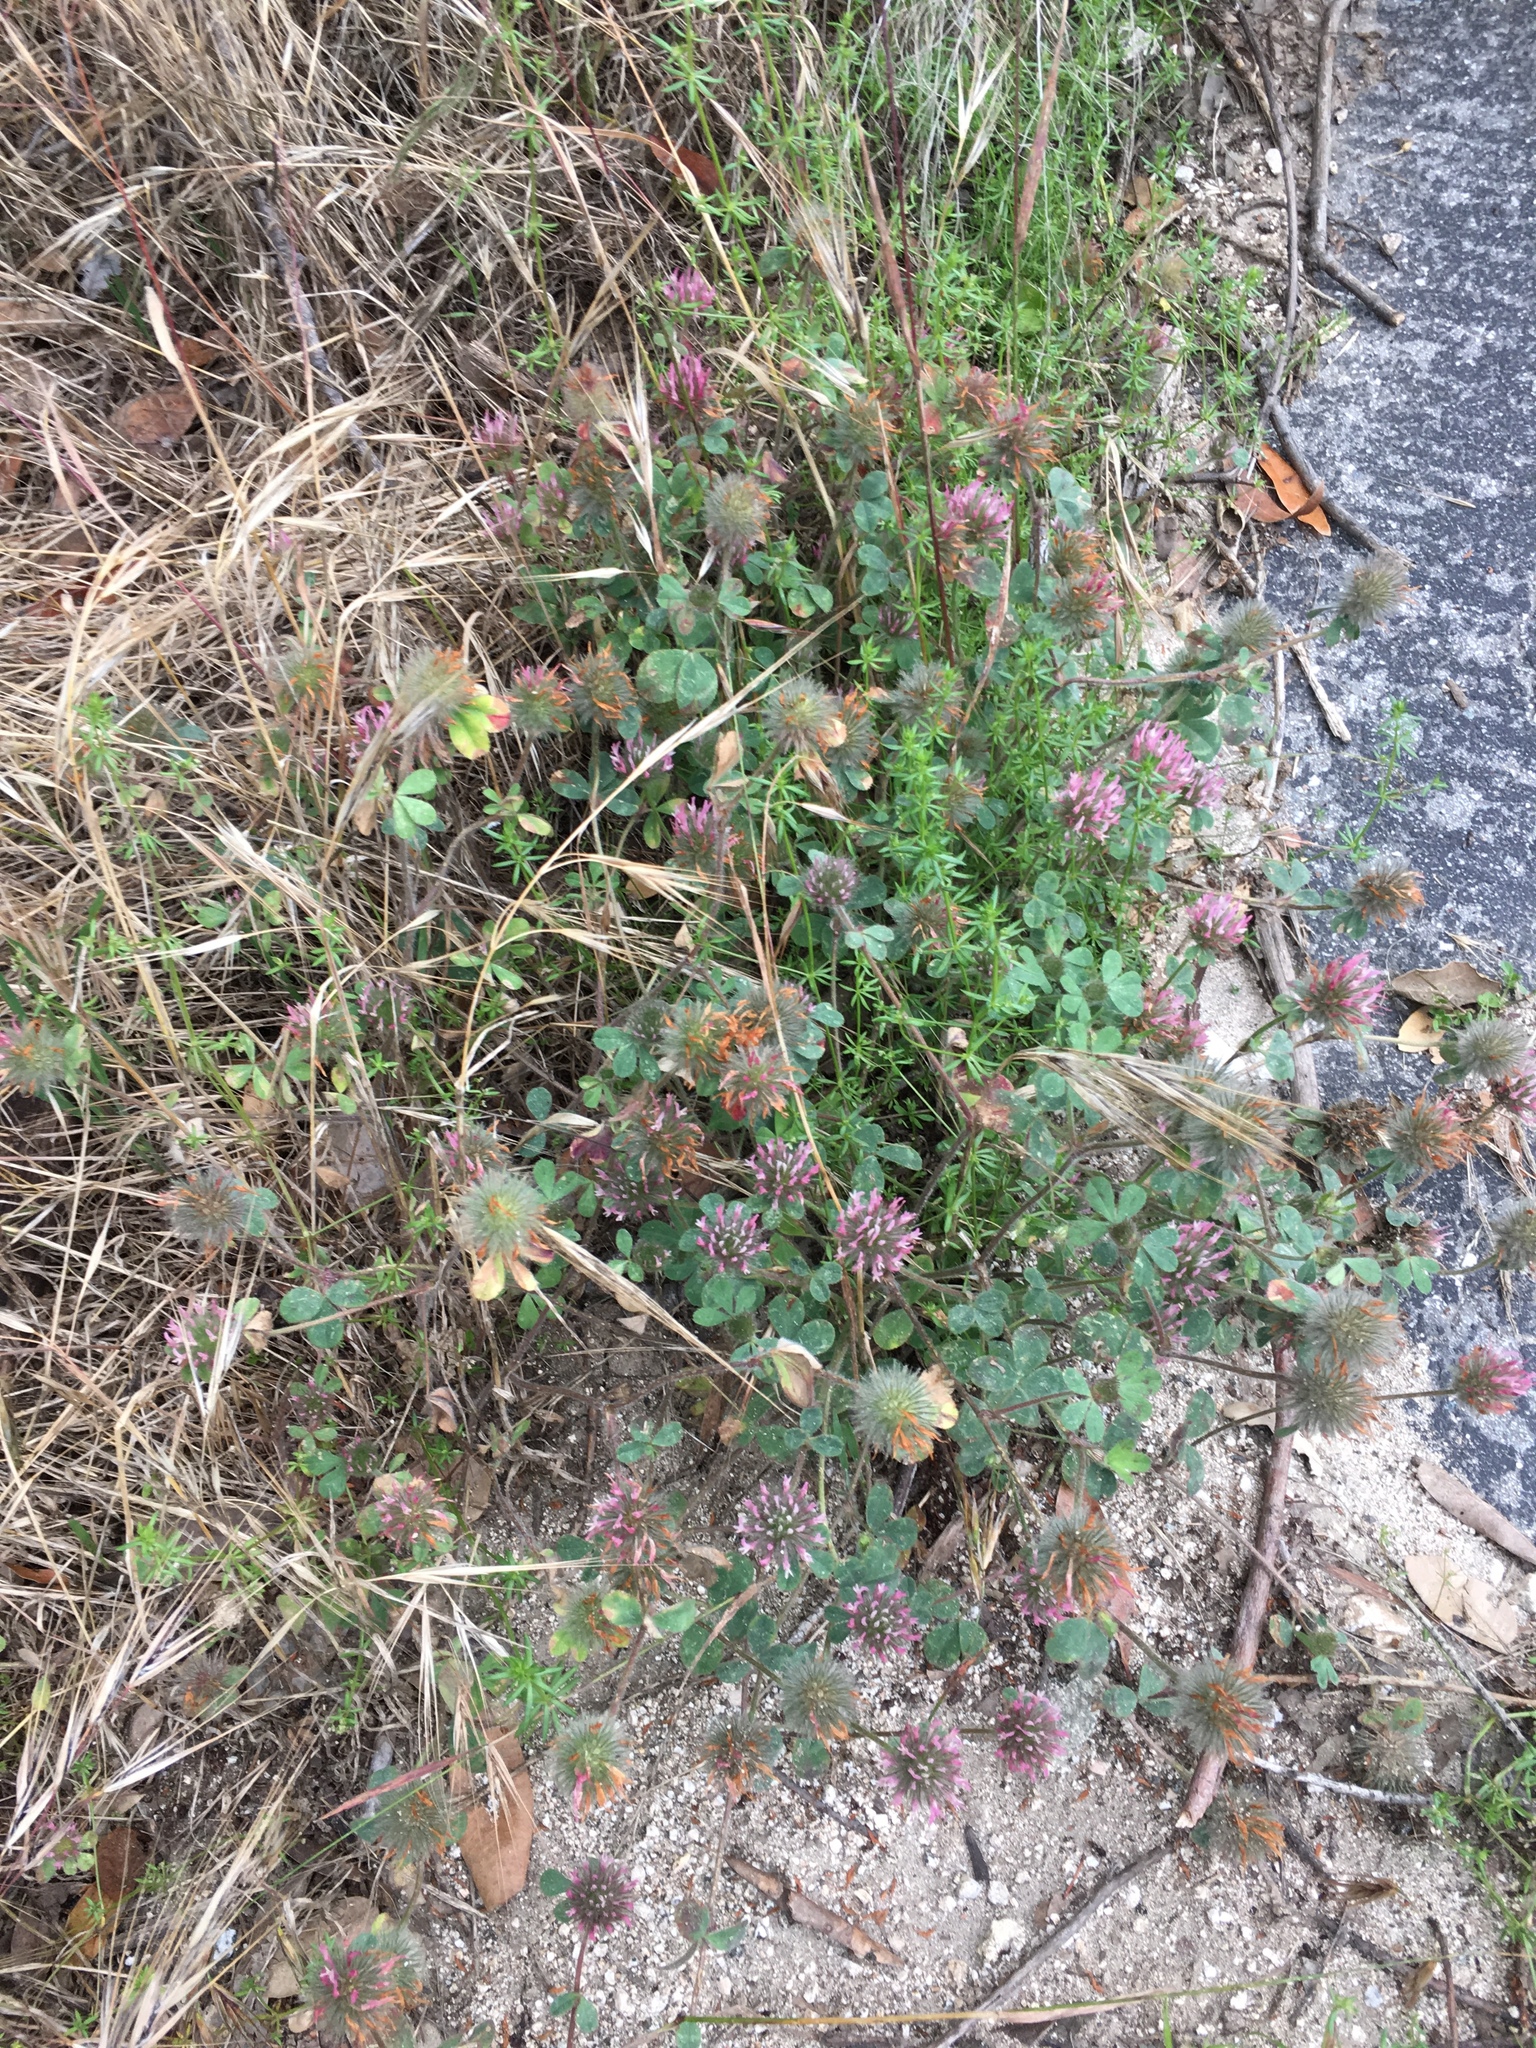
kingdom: Plantae
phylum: Tracheophyta
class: Magnoliopsida
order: Fabales
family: Fabaceae
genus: Trifolium
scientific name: Trifolium hirtum
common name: Rose clover
